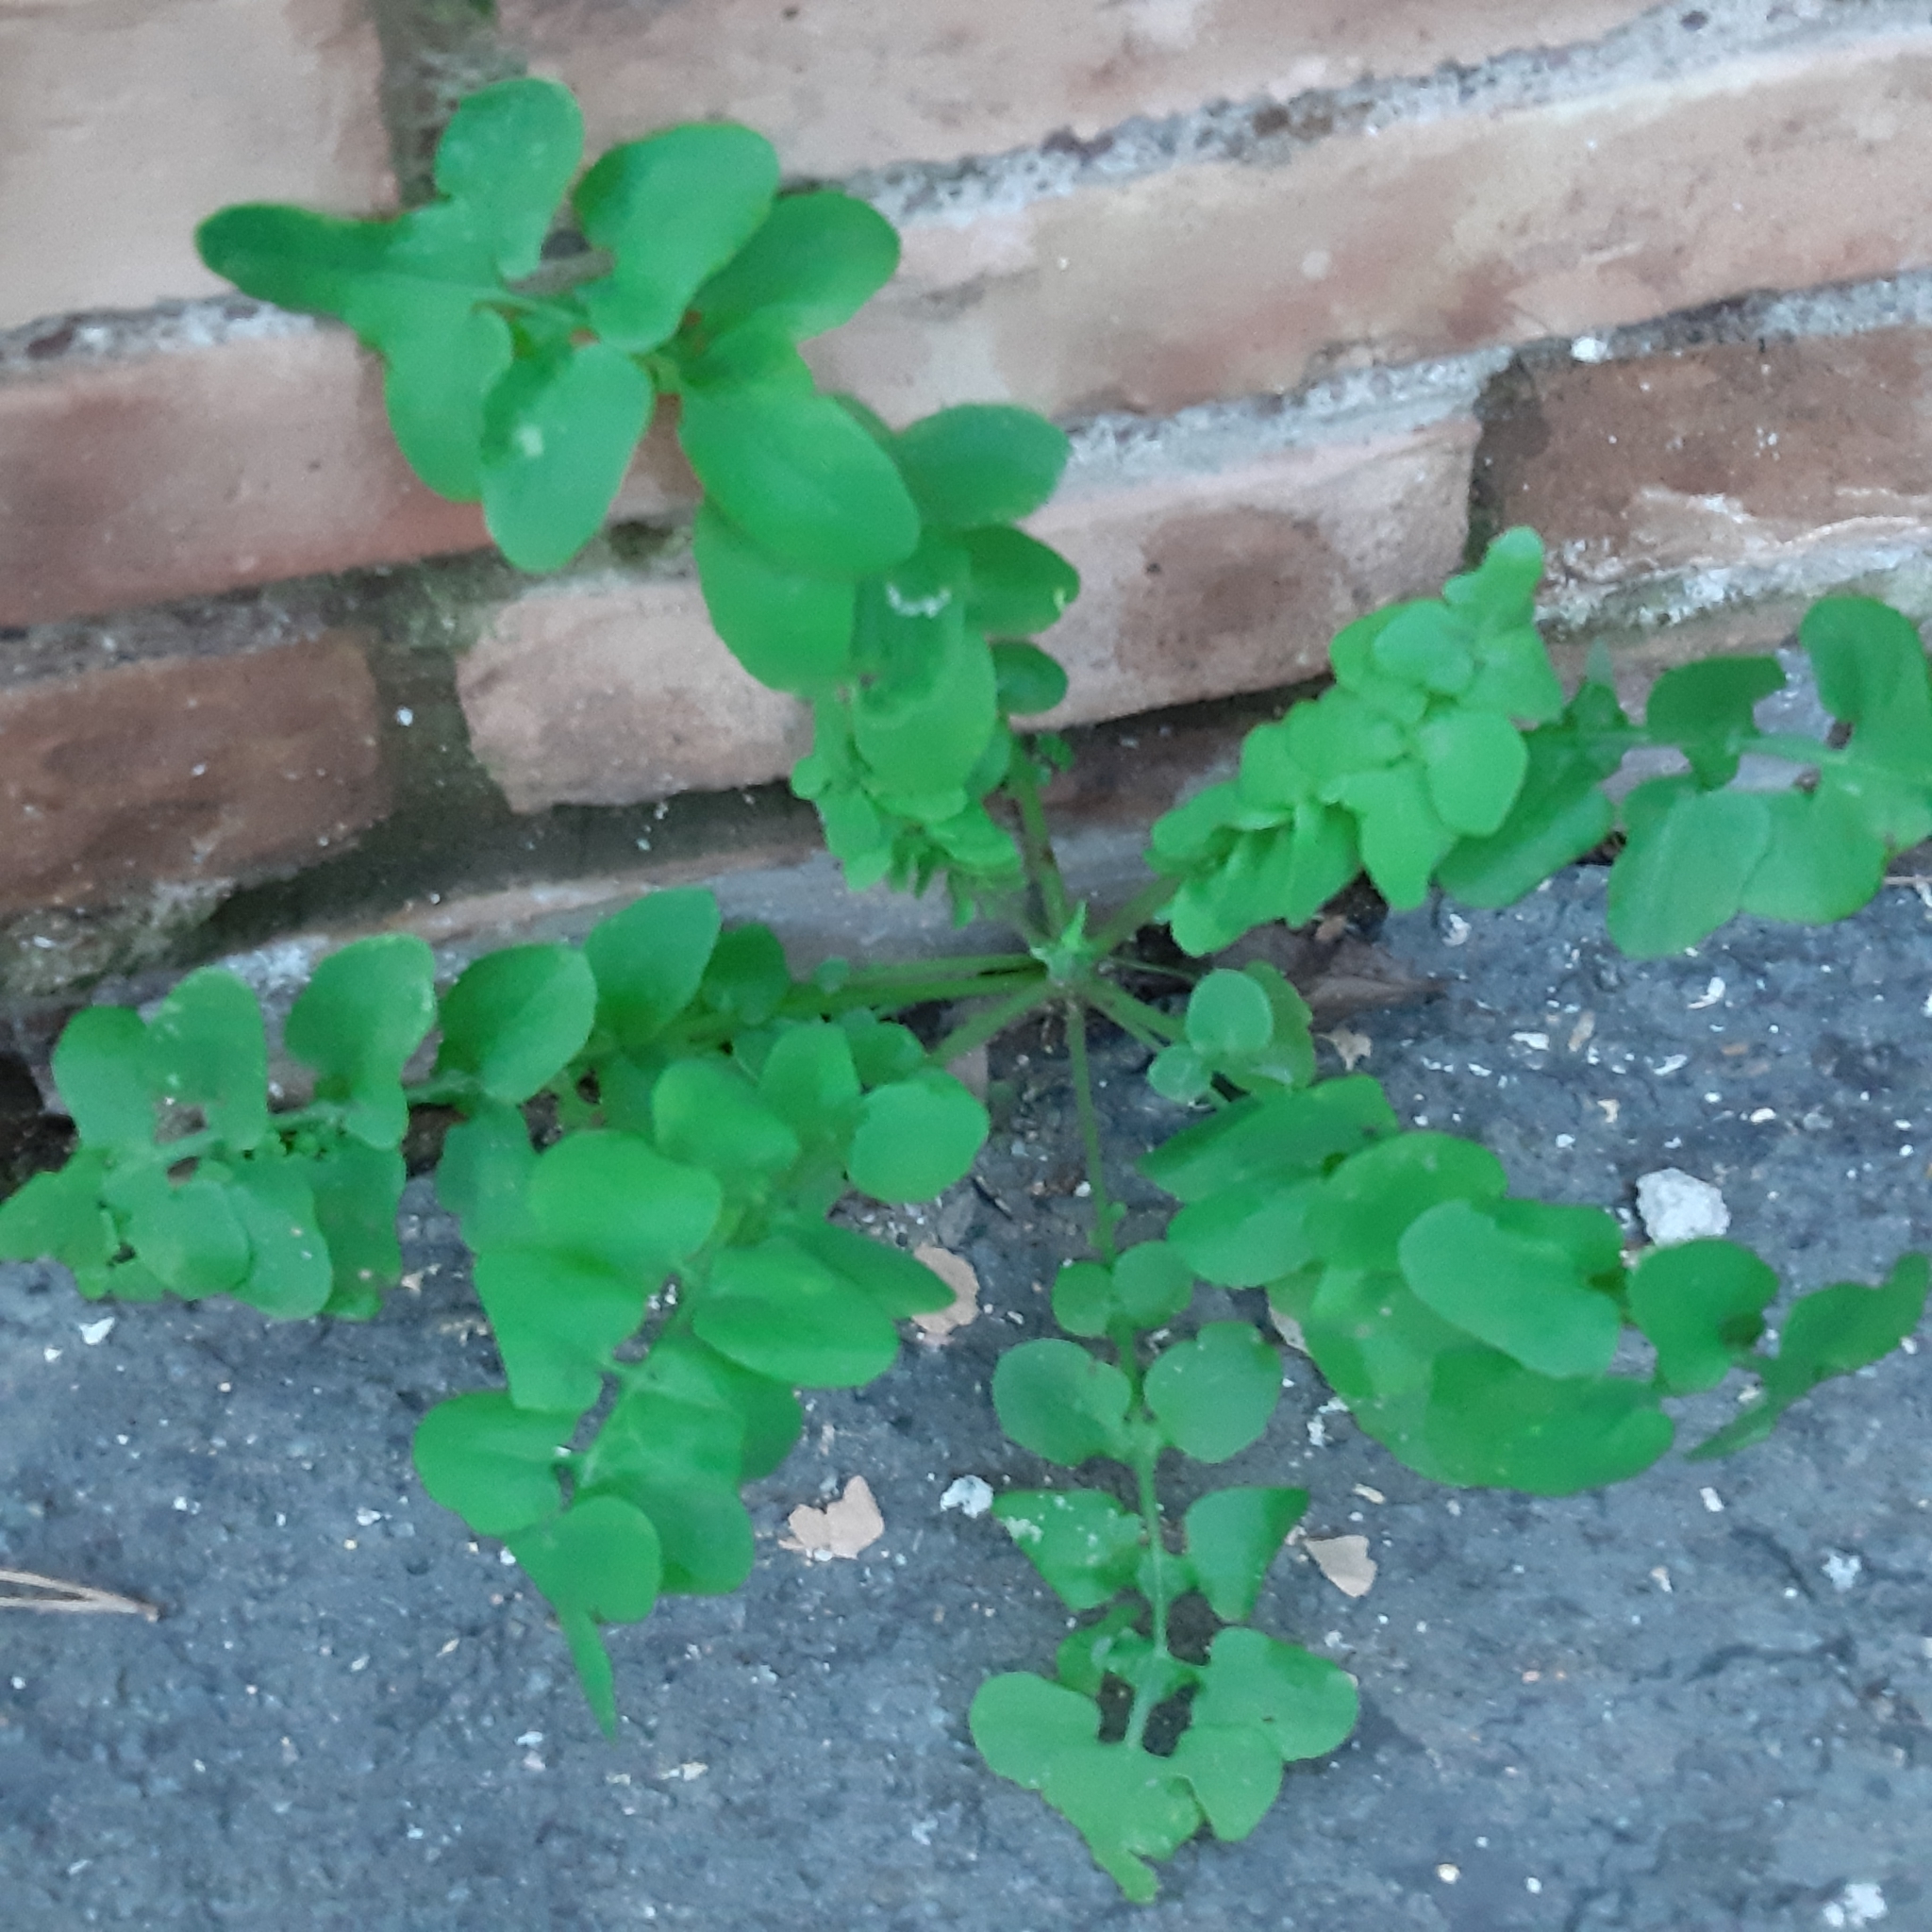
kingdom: Plantae
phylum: Tracheophyta
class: Magnoliopsida
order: Asterales
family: Asteraceae
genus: Sonchus
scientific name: Sonchus tenerrimus
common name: Clammy sowthistle
